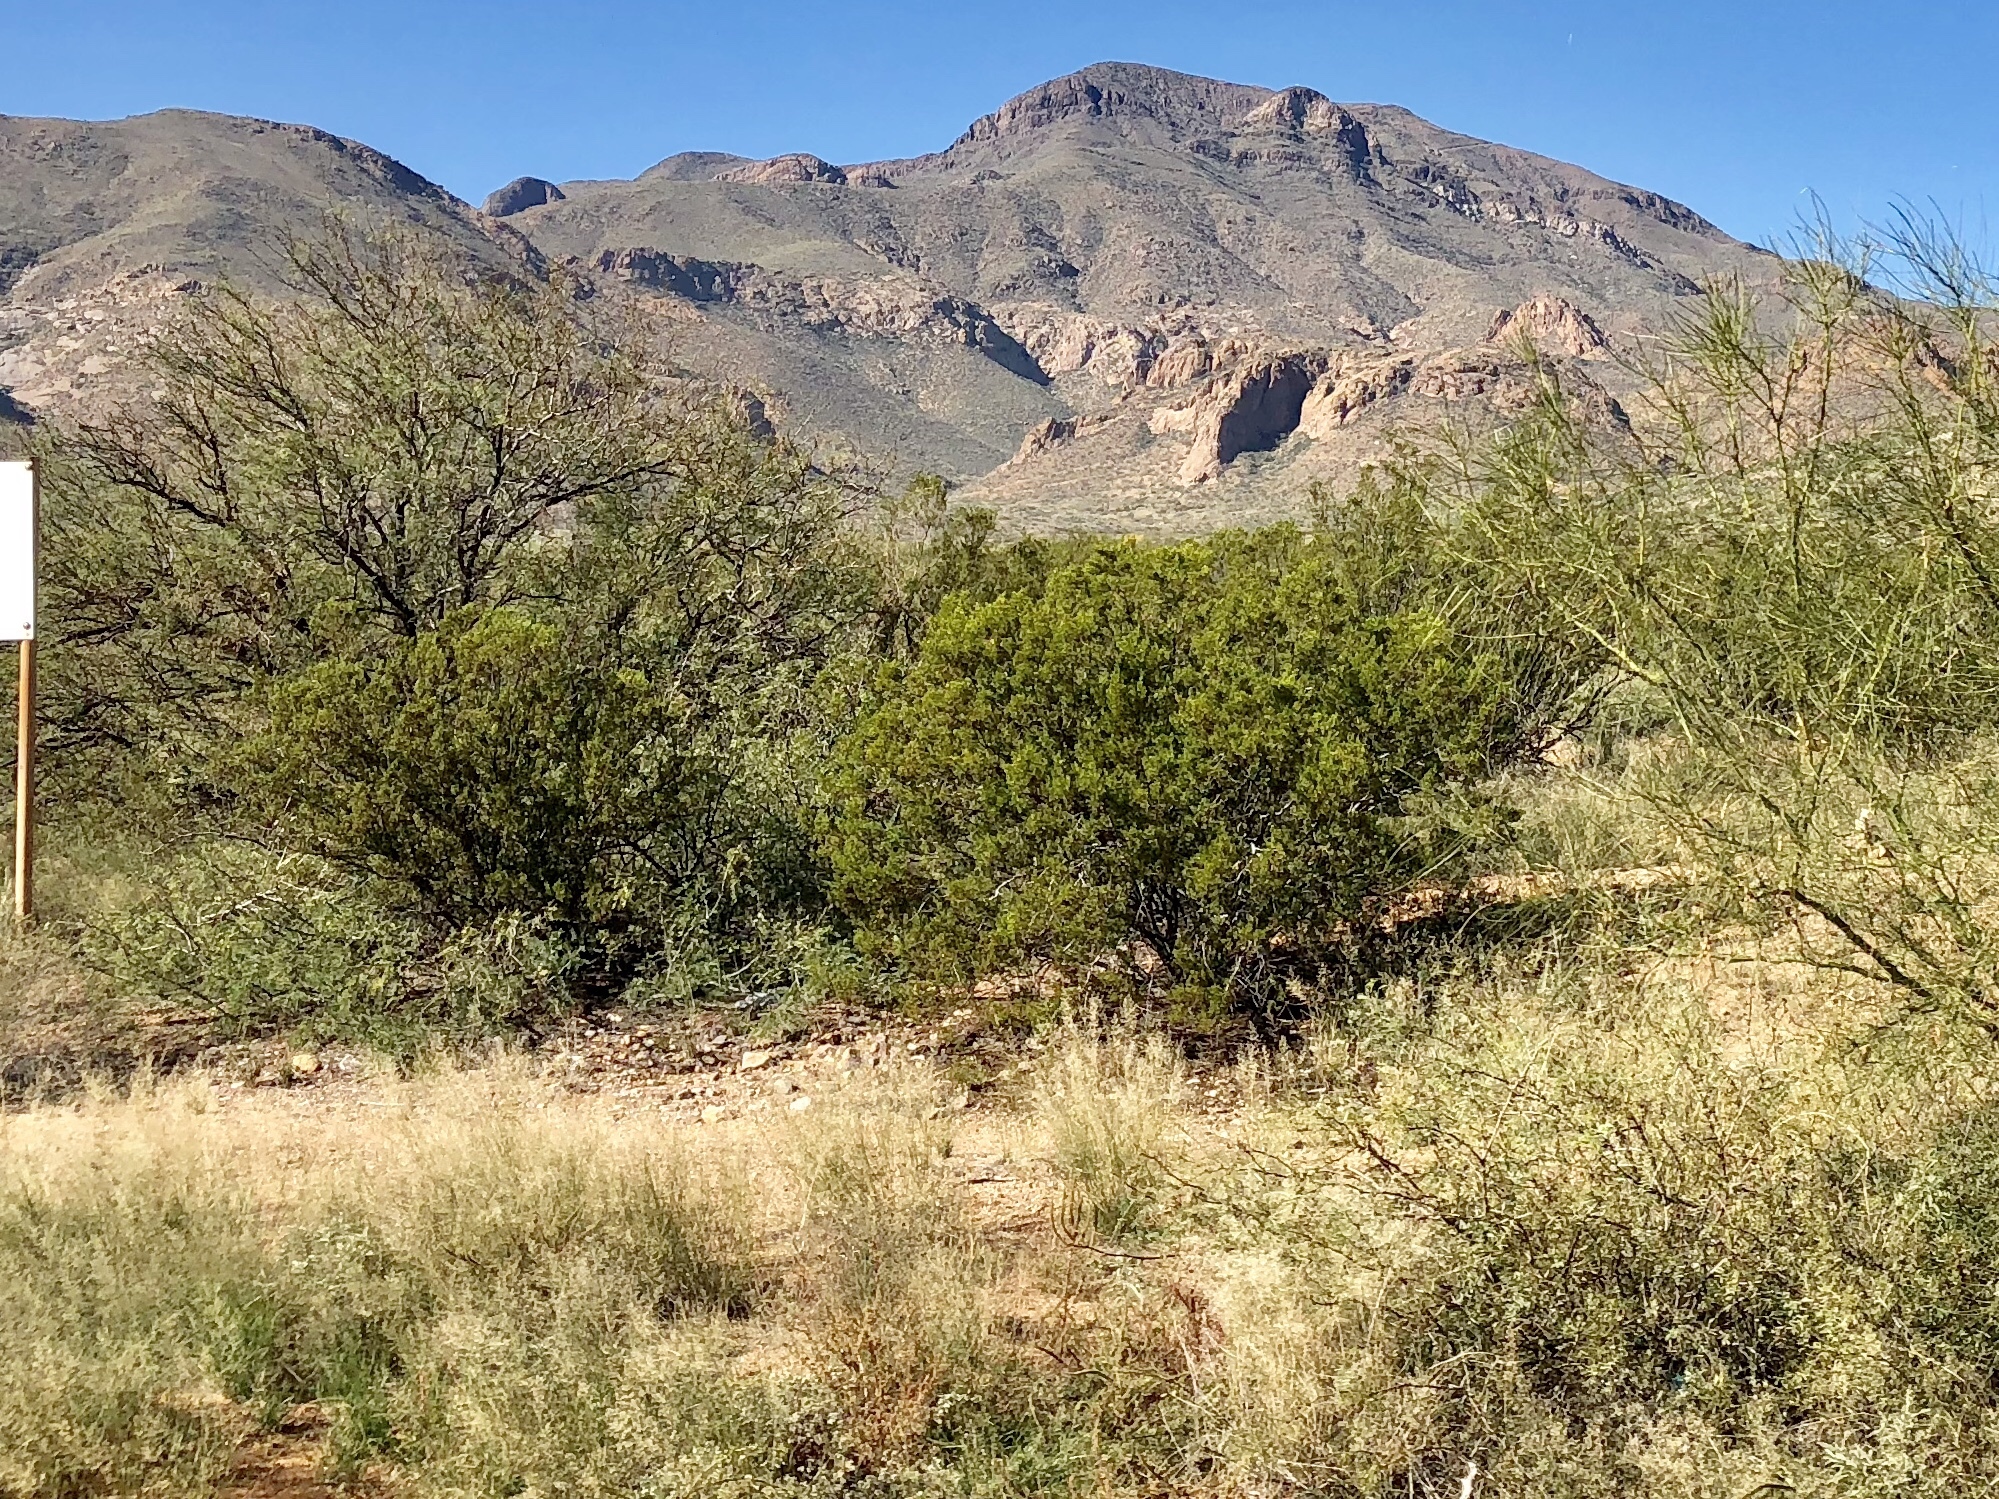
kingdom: Plantae
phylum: Tracheophyta
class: Magnoliopsida
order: Zygophyllales
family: Zygophyllaceae
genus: Larrea
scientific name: Larrea tridentata
